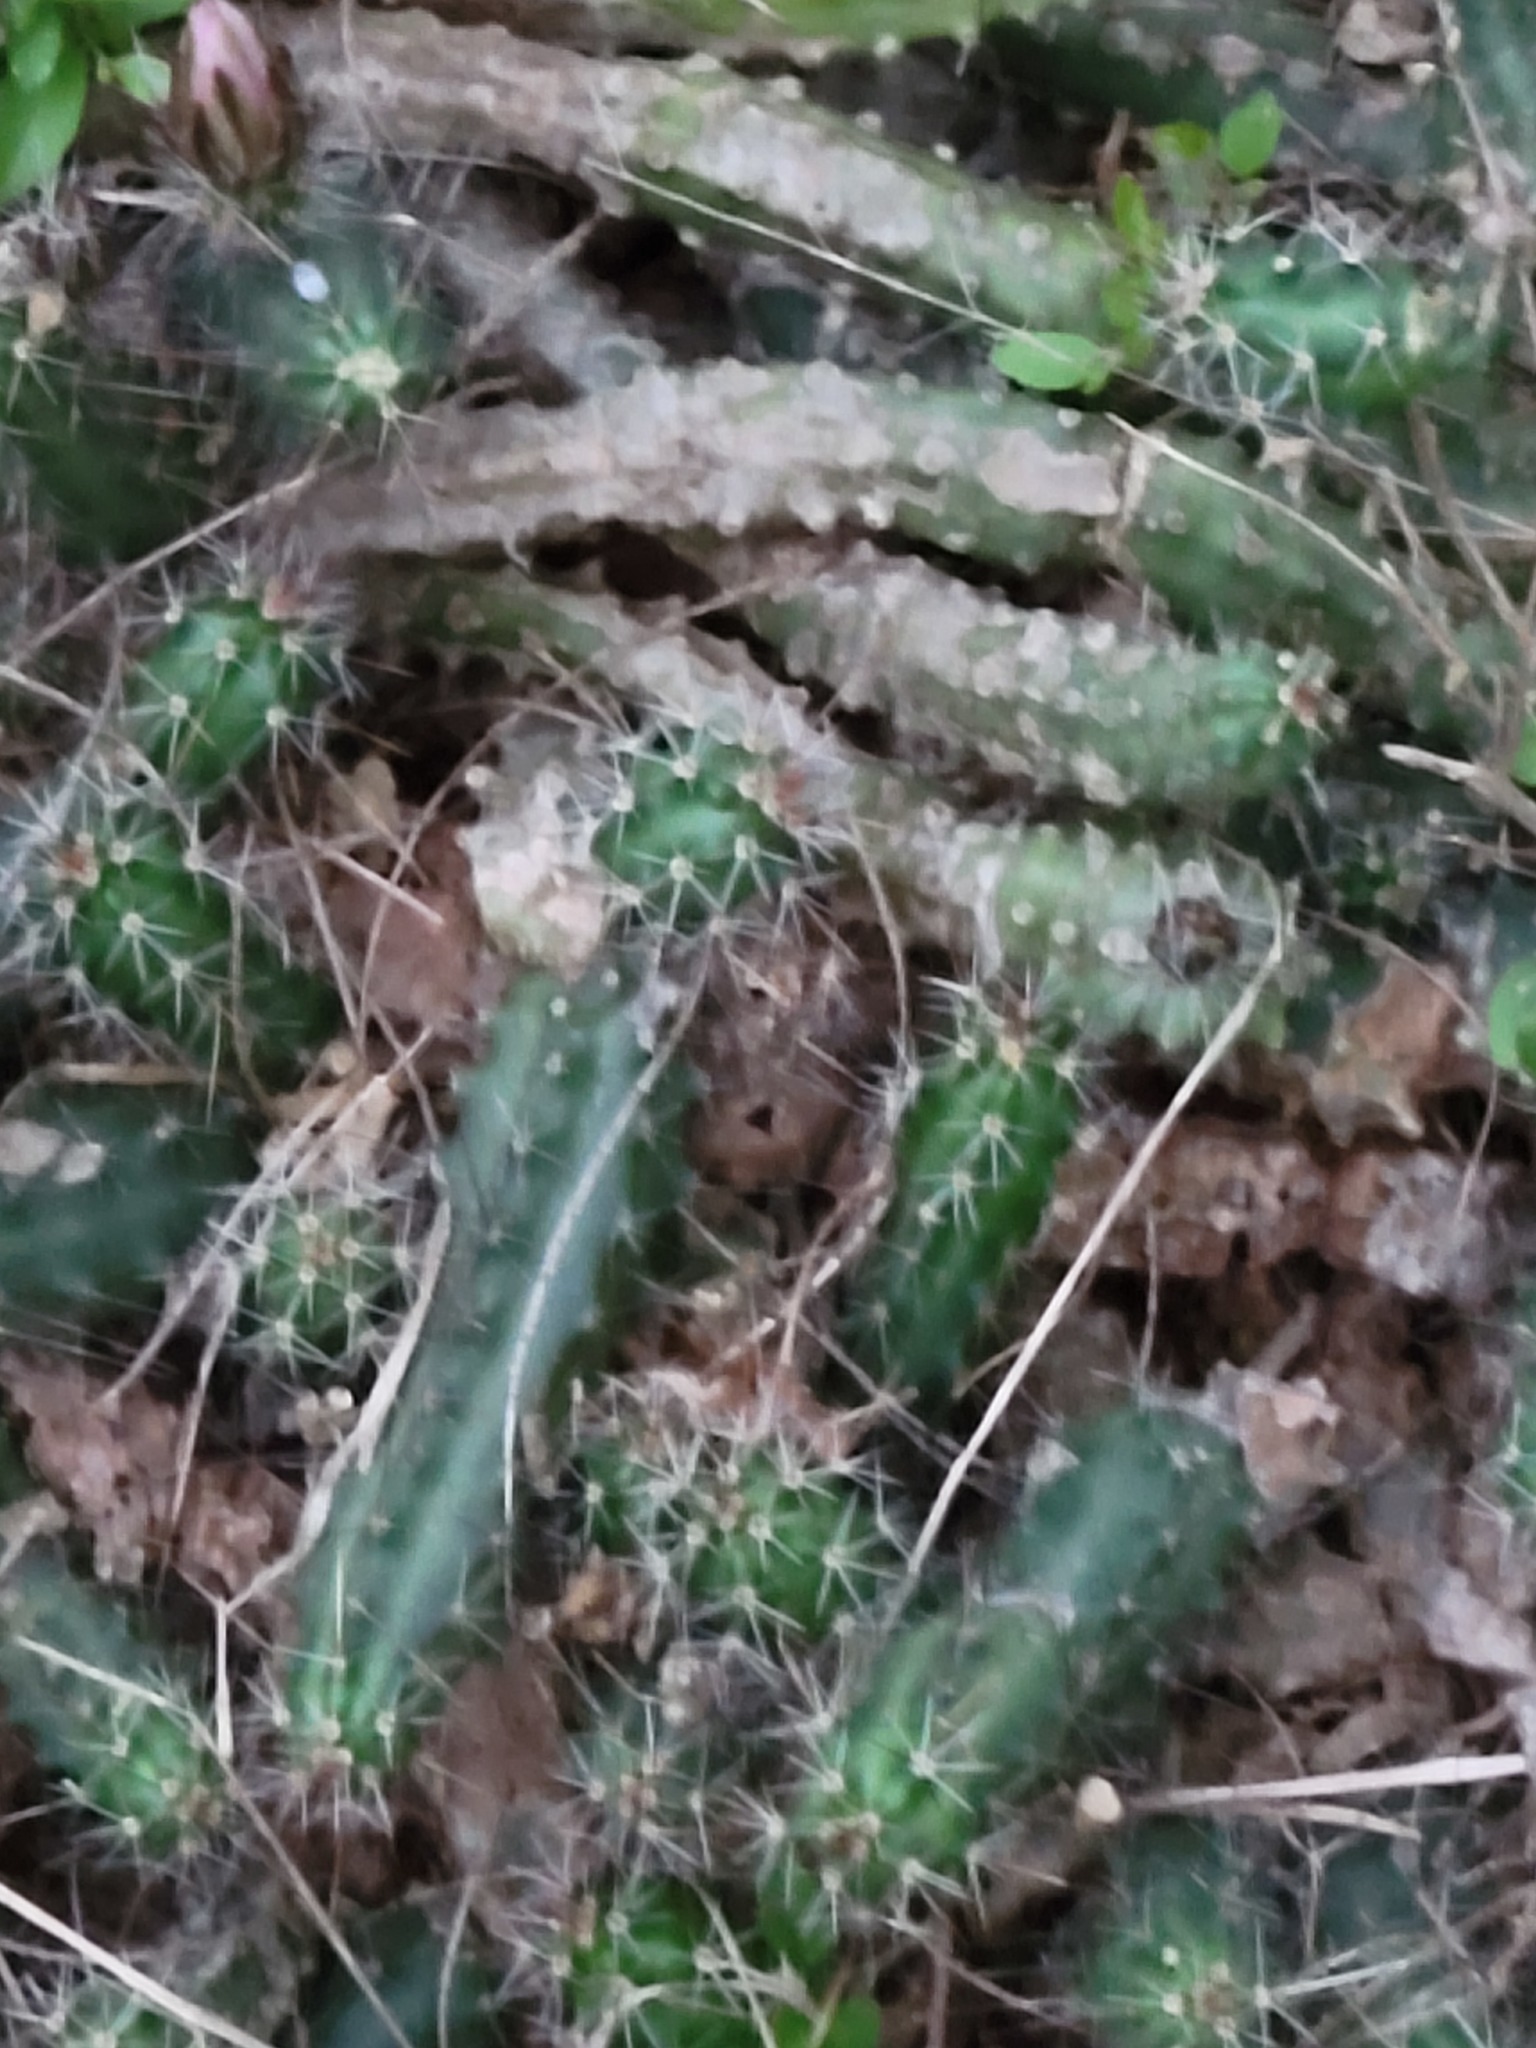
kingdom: Plantae
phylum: Tracheophyta
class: Magnoliopsida
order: Caryophyllales
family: Cactaceae
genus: Echinocereus
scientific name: Echinocereus berlandieri
